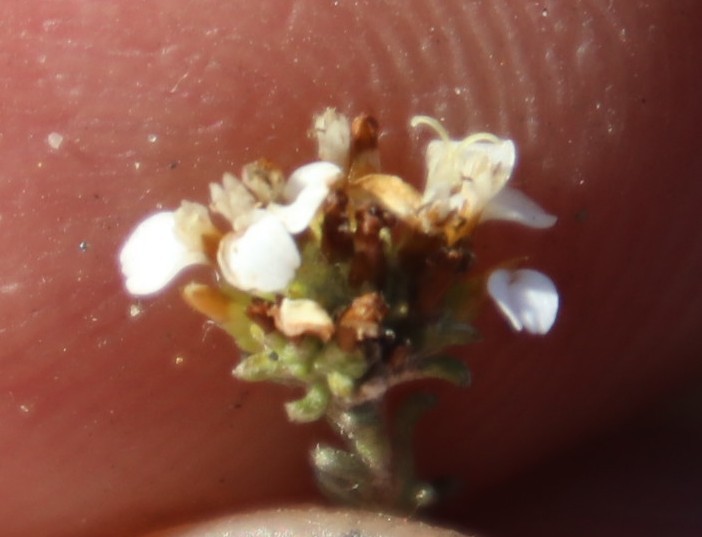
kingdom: Plantae
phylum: Tracheophyta
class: Magnoliopsida
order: Asterales
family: Asteraceae
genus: Disparago
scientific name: Disparago anomala
